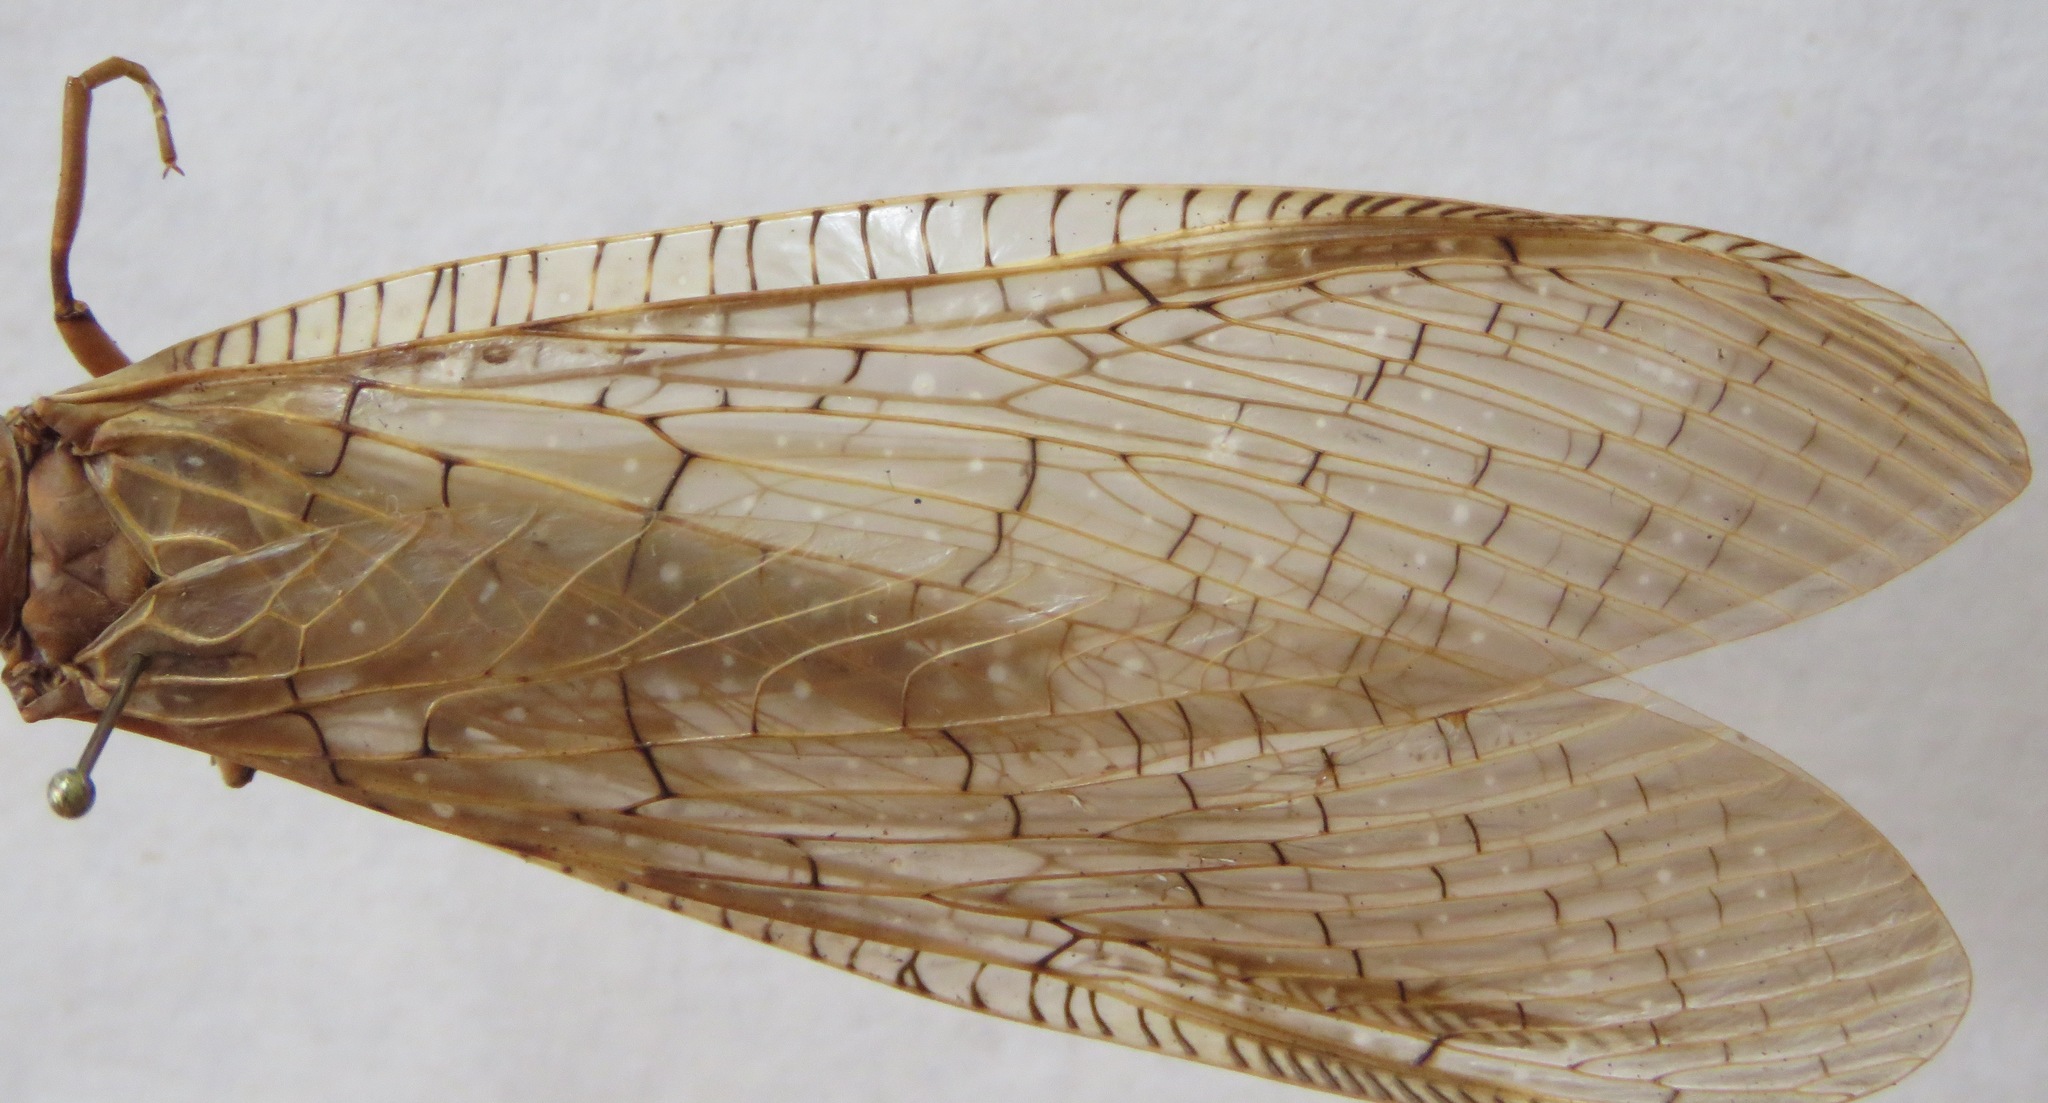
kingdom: Animalia
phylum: Arthropoda
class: Insecta
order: Megaloptera
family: Corydalidae
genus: Corydalus
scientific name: Corydalus luteus
